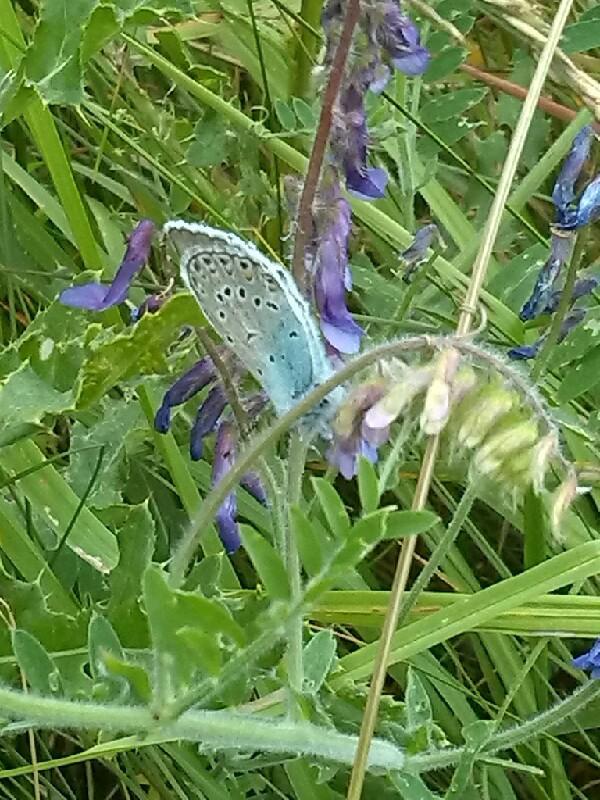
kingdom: Animalia
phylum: Arthropoda
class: Insecta
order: Lepidoptera
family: Lycaenidae
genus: Plebejus
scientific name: Plebejus amanda
